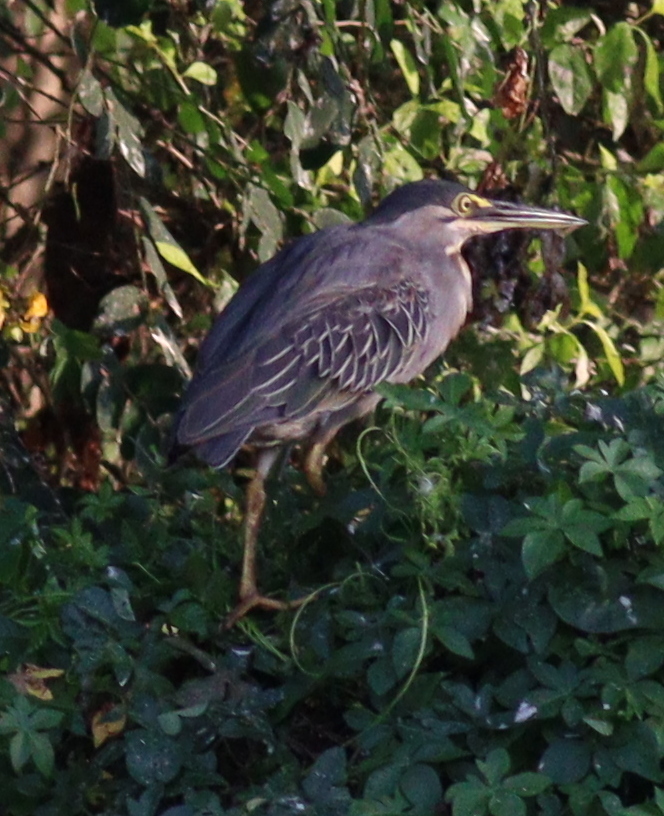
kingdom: Animalia
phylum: Chordata
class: Aves
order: Pelecaniformes
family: Ardeidae
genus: Butorides
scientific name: Butorides striata
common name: Striated heron
